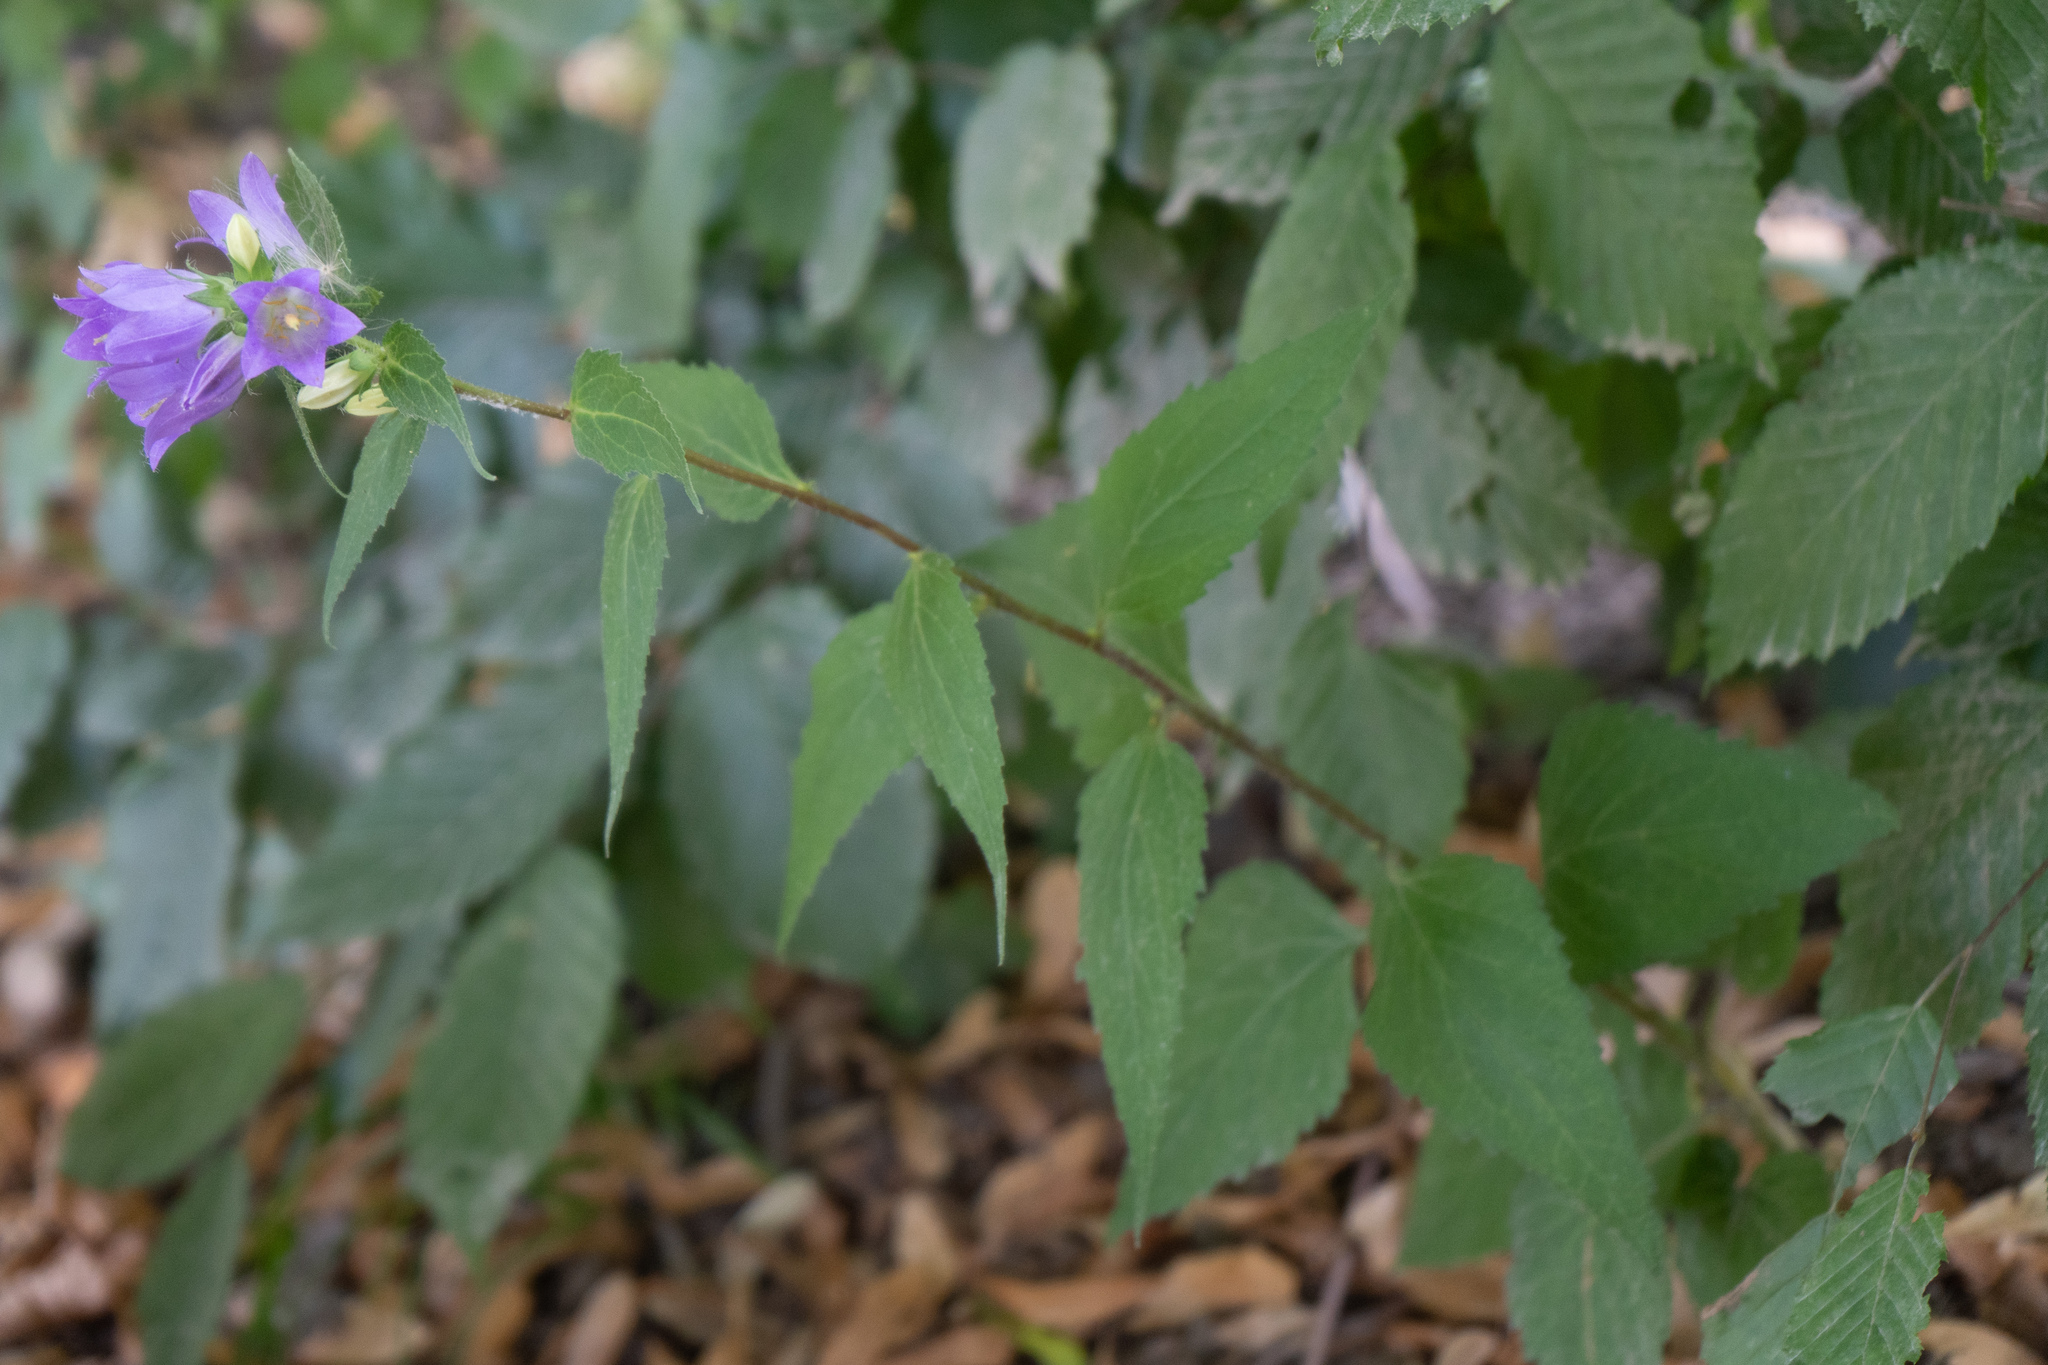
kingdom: Plantae
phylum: Tracheophyta
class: Magnoliopsida
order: Asterales
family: Campanulaceae
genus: Campanula
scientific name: Campanula trachelium
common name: Nettle-leaved bellflower
